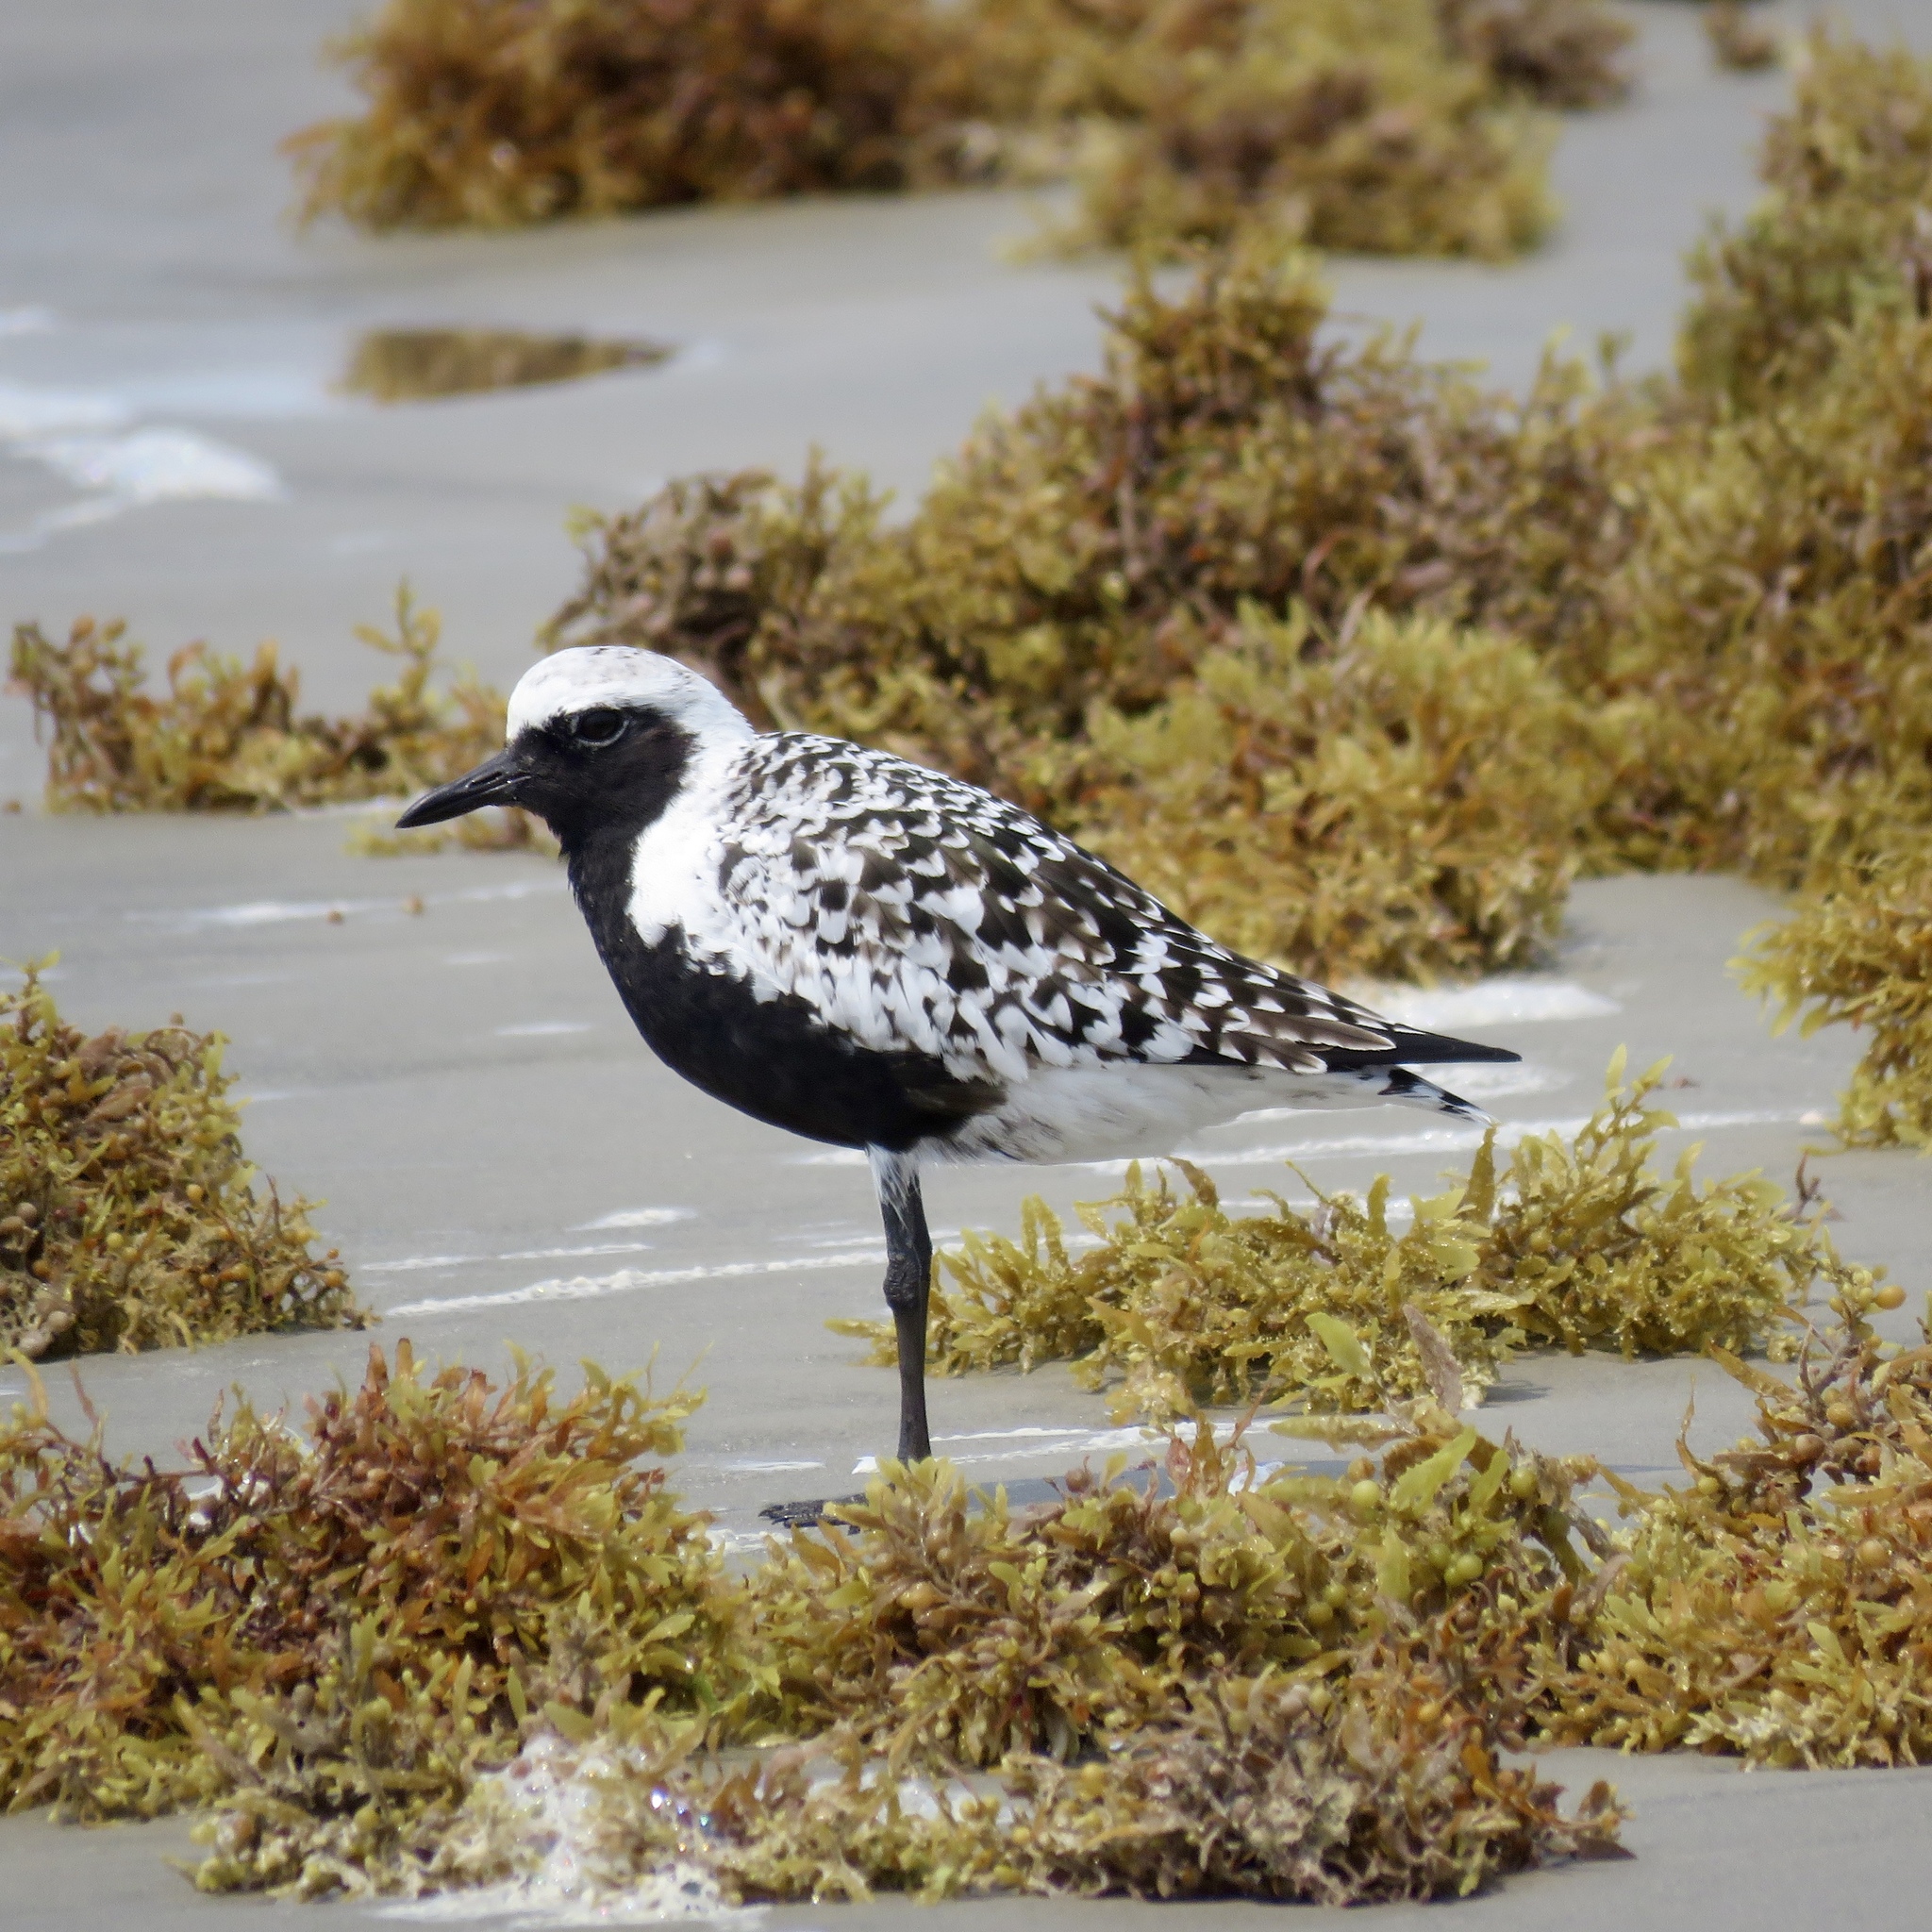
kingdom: Animalia
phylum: Chordata
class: Aves
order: Charadriiformes
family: Charadriidae
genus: Pluvialis
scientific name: Pluvialis squatarola
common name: Grey plover
